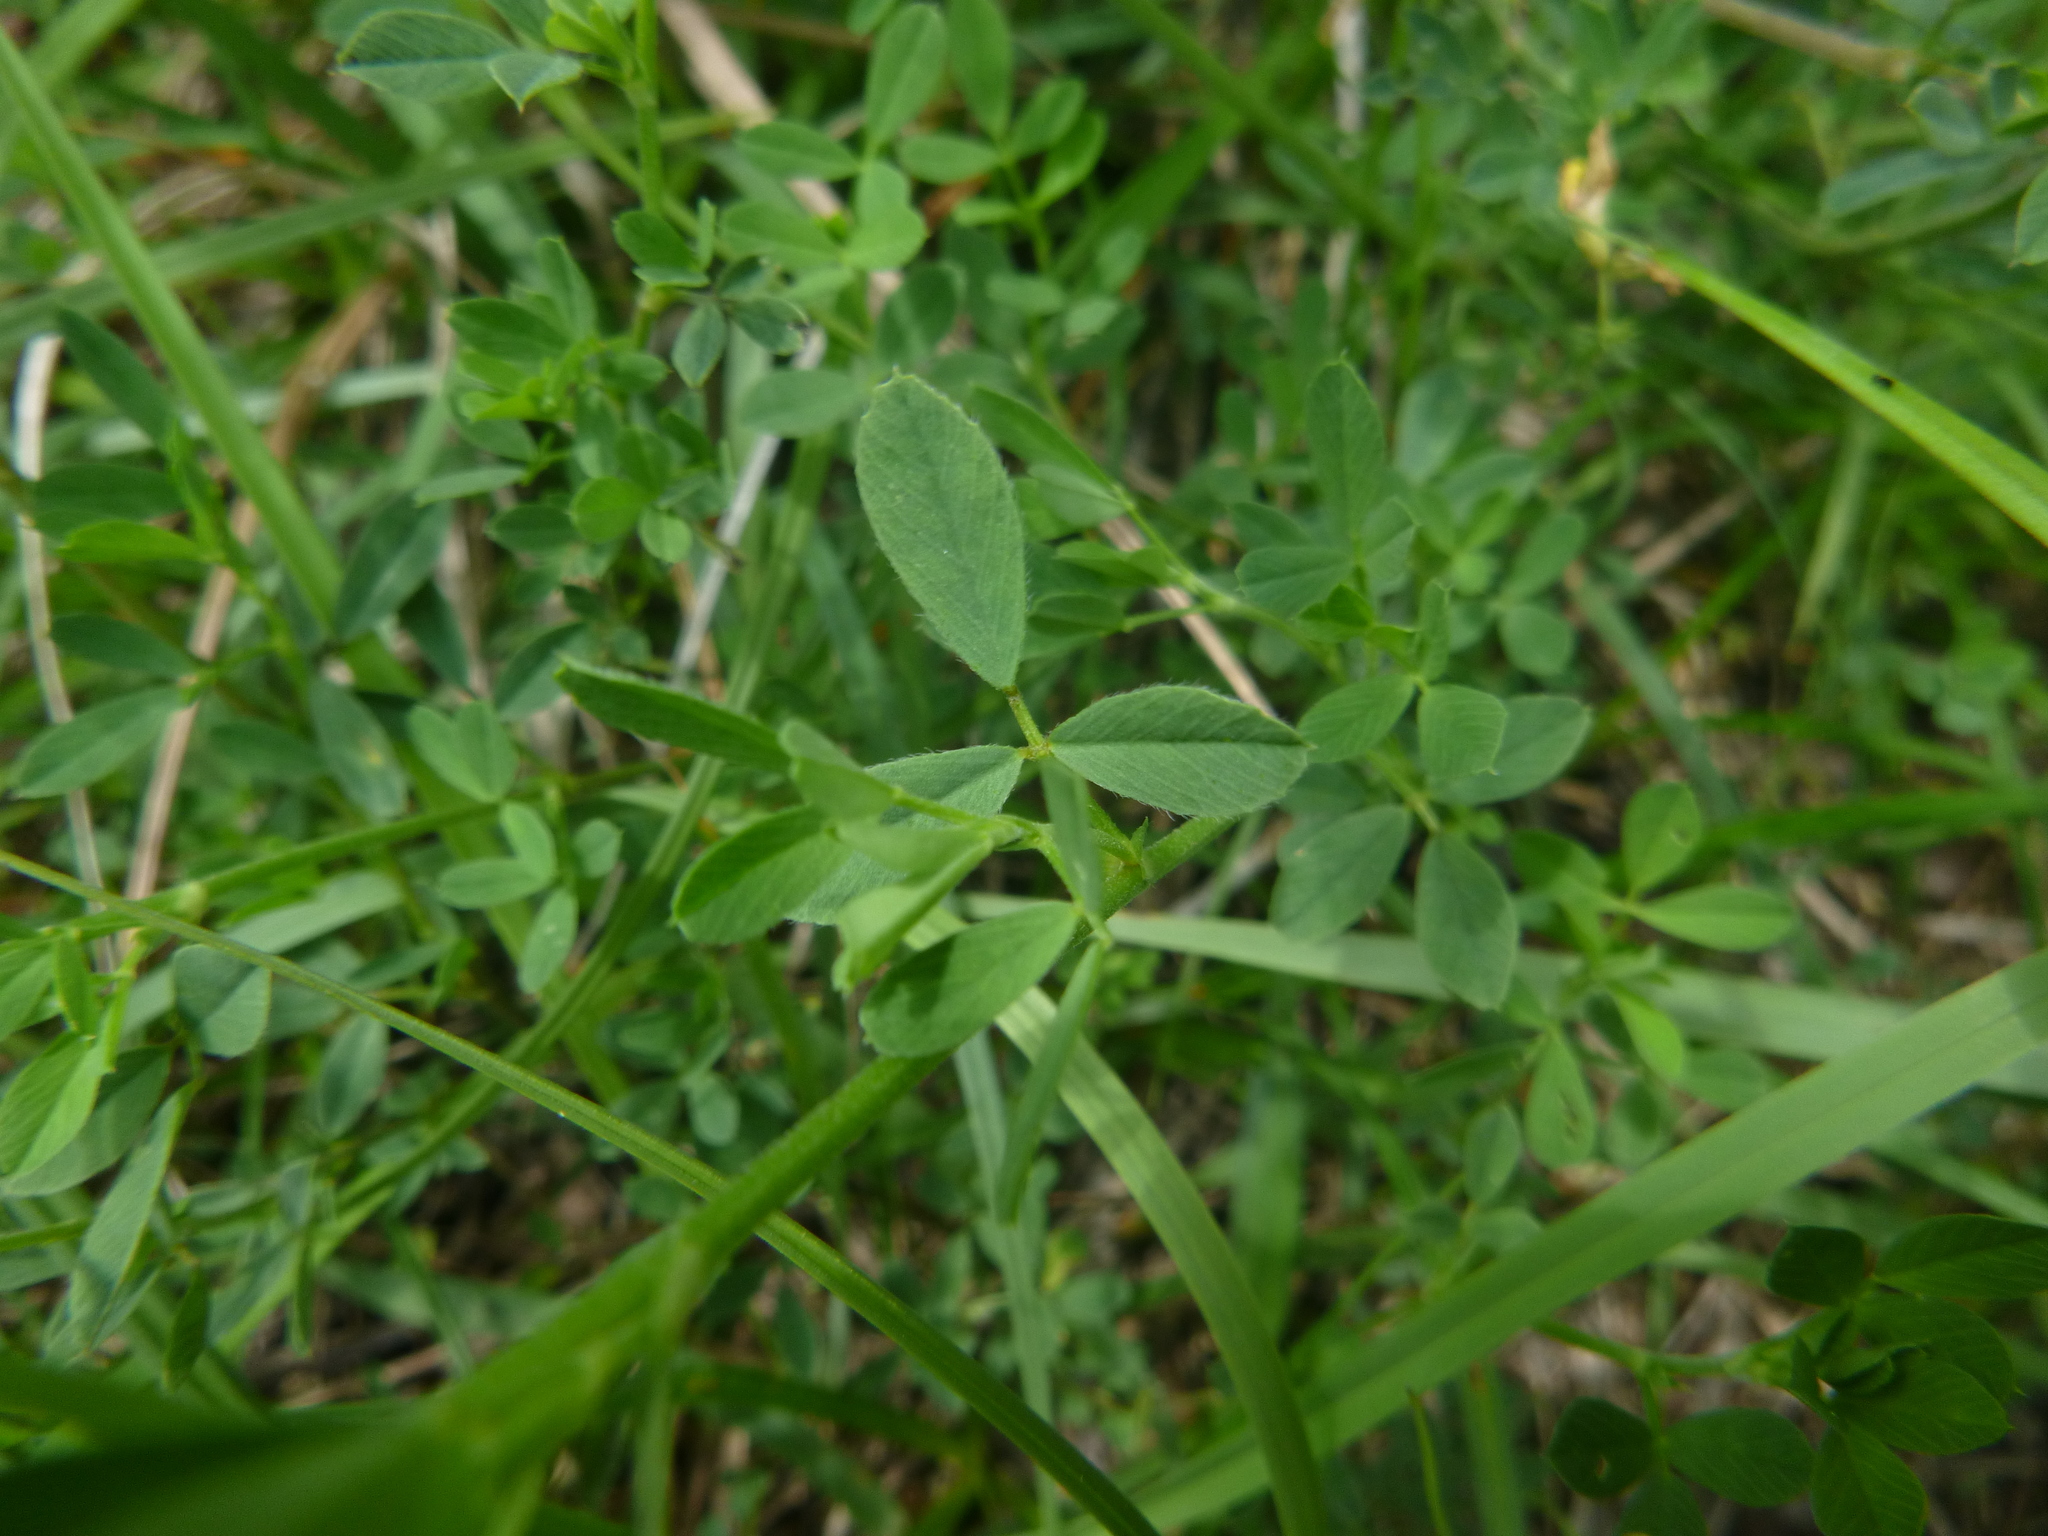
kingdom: Plantae
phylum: Tracheophyta
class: Magnoliopsida
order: Fabales
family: Fabaceae
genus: Medicago
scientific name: Medicago falcata
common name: Sickle medick
